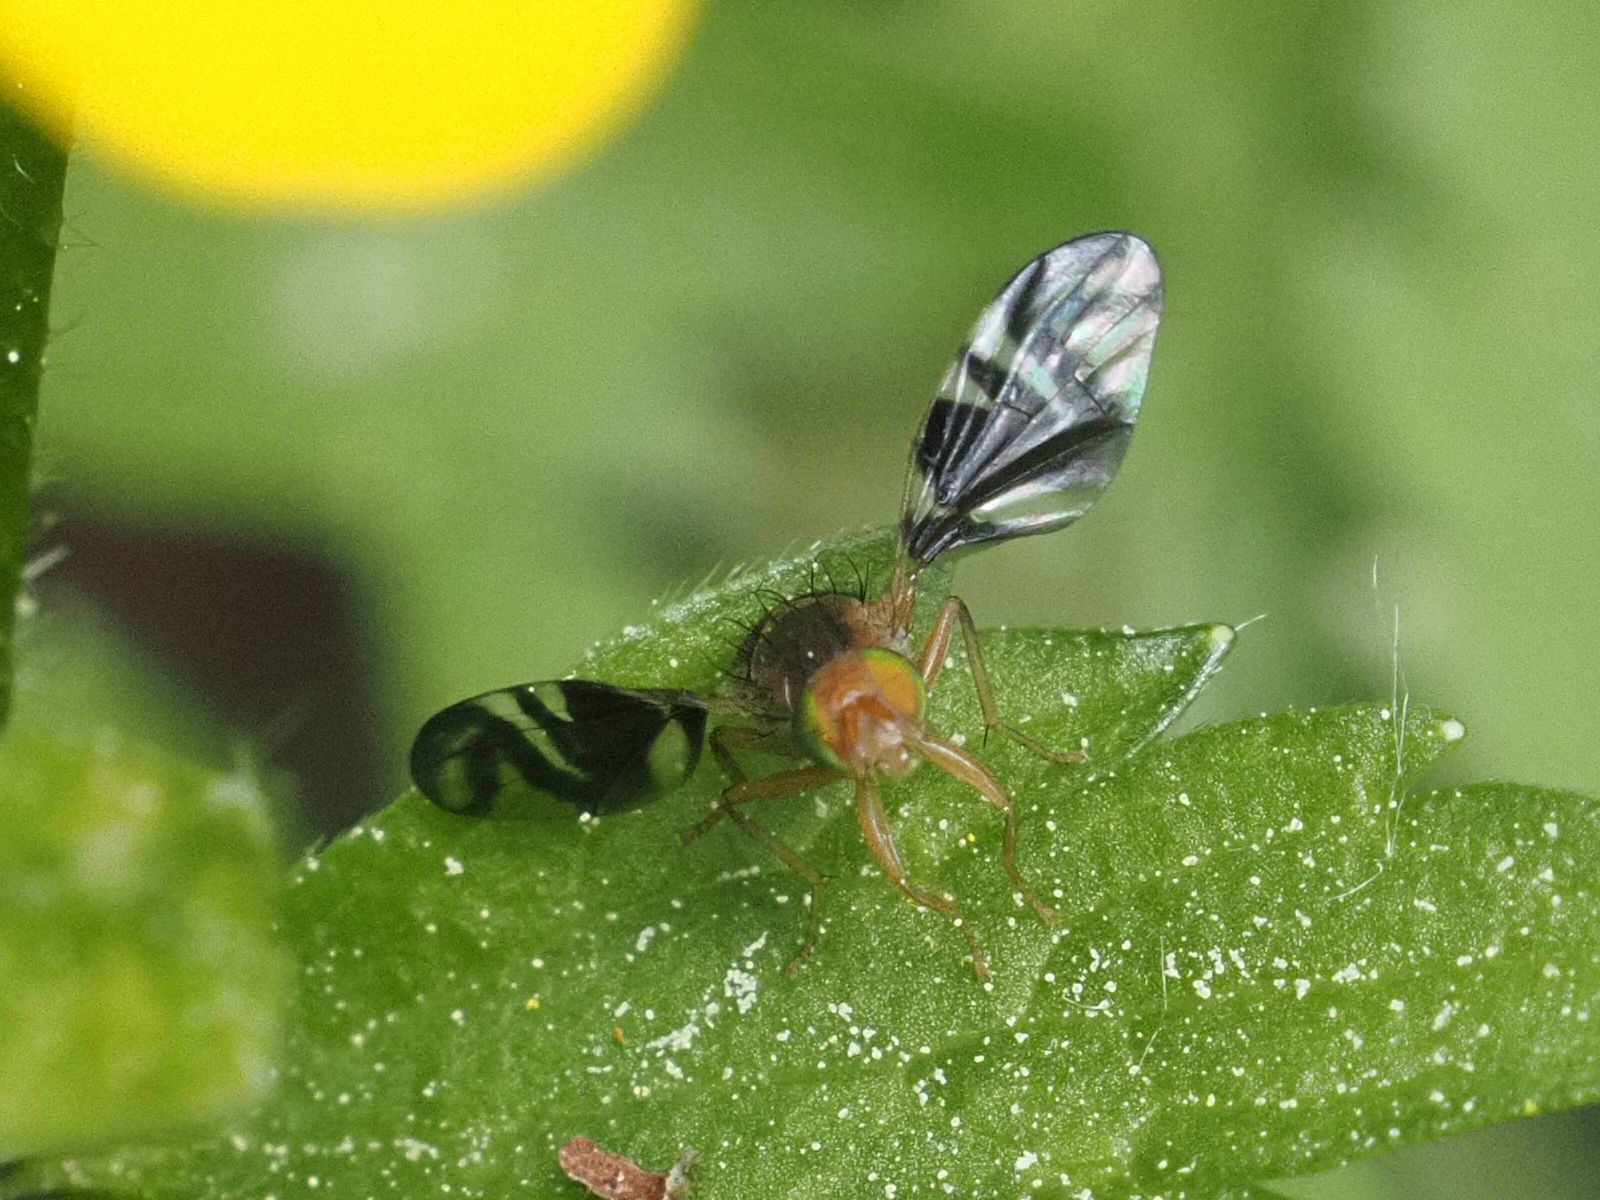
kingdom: Animalia
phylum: Arthropoda
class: Insecta
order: Diptera
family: Tephritidae
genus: Philophylla
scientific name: Philophylla caesio
